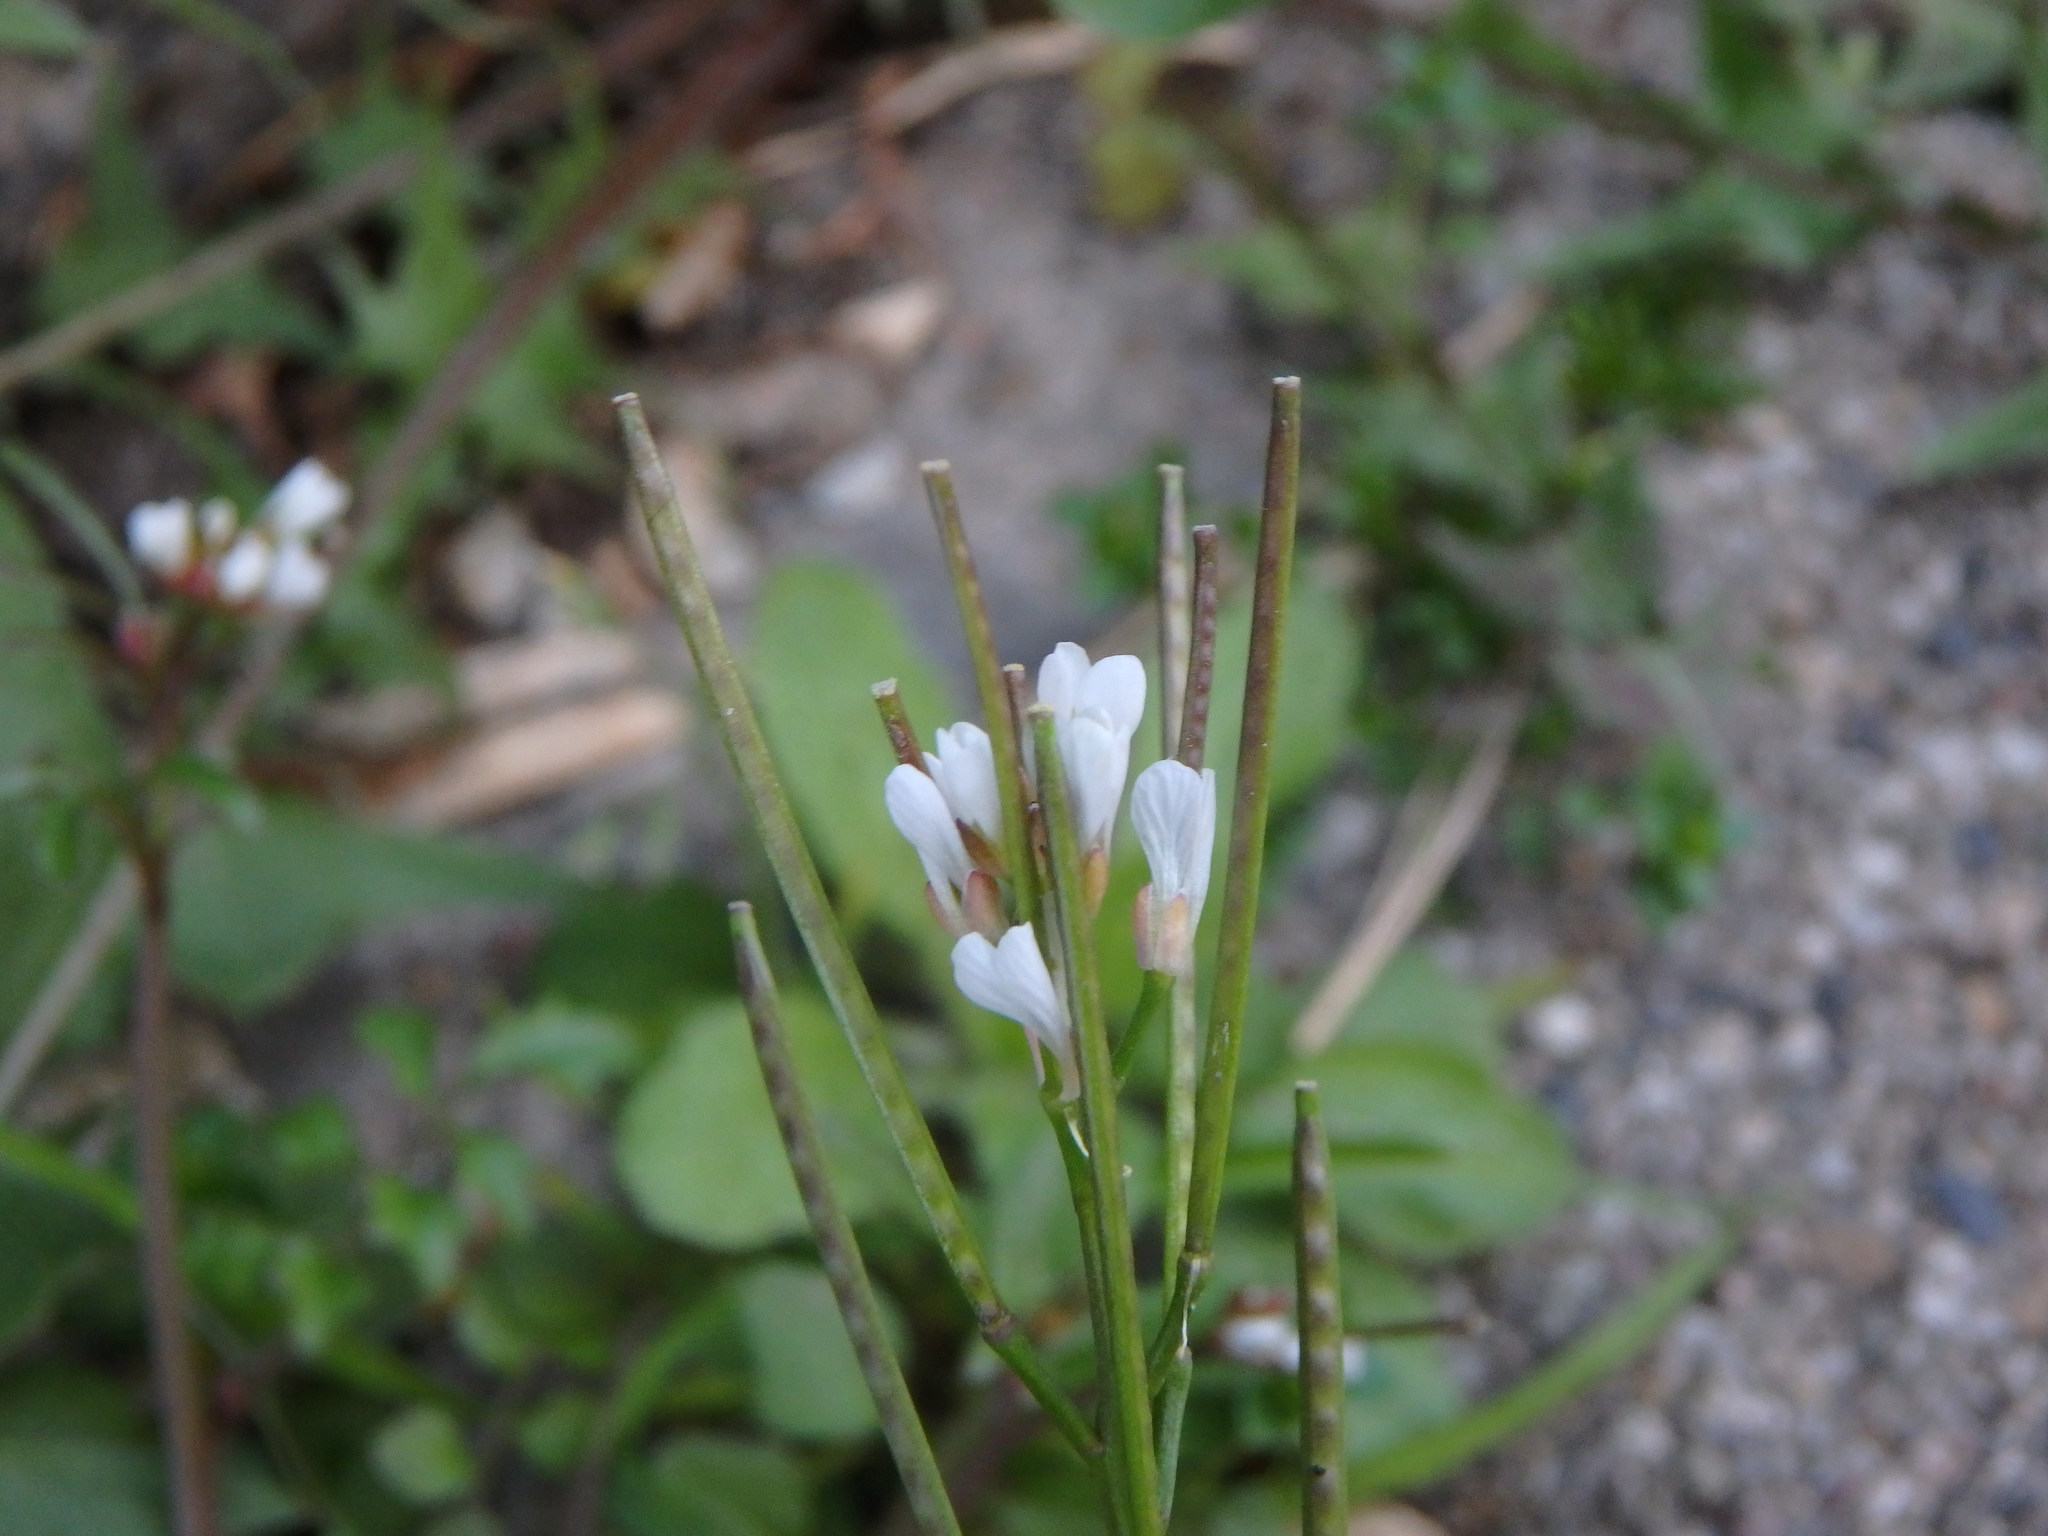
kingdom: Plantae
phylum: Tracheophyta
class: Magnoliopsida
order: Brassicales
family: Brassicaceae
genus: Cardamine
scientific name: Cardamine hirsuta
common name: Hairy bittercress
